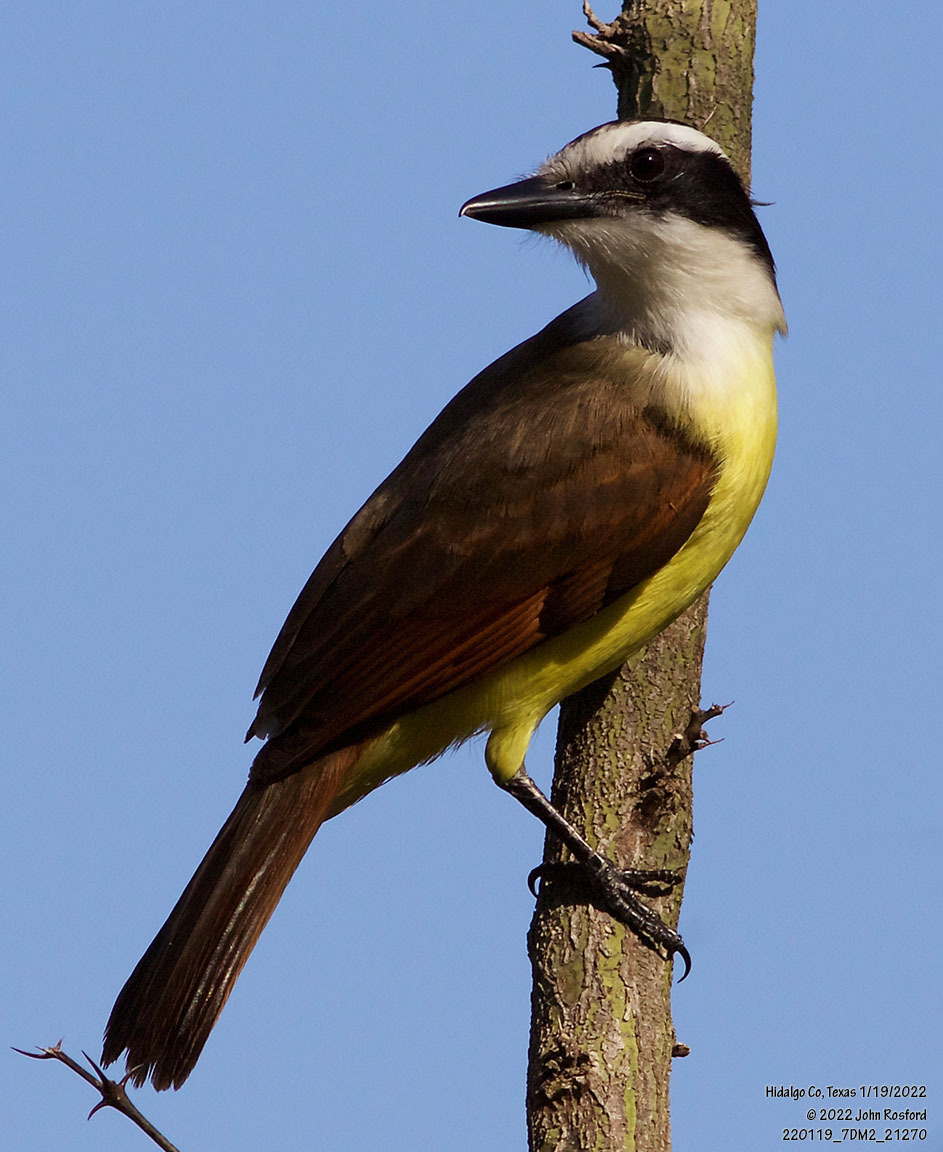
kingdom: Animalia
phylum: Chordata
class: Aves
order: Passeriformes
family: Tyrannidae
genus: Pitangus
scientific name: Pitangus sulphuratus
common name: Great kiskadee
